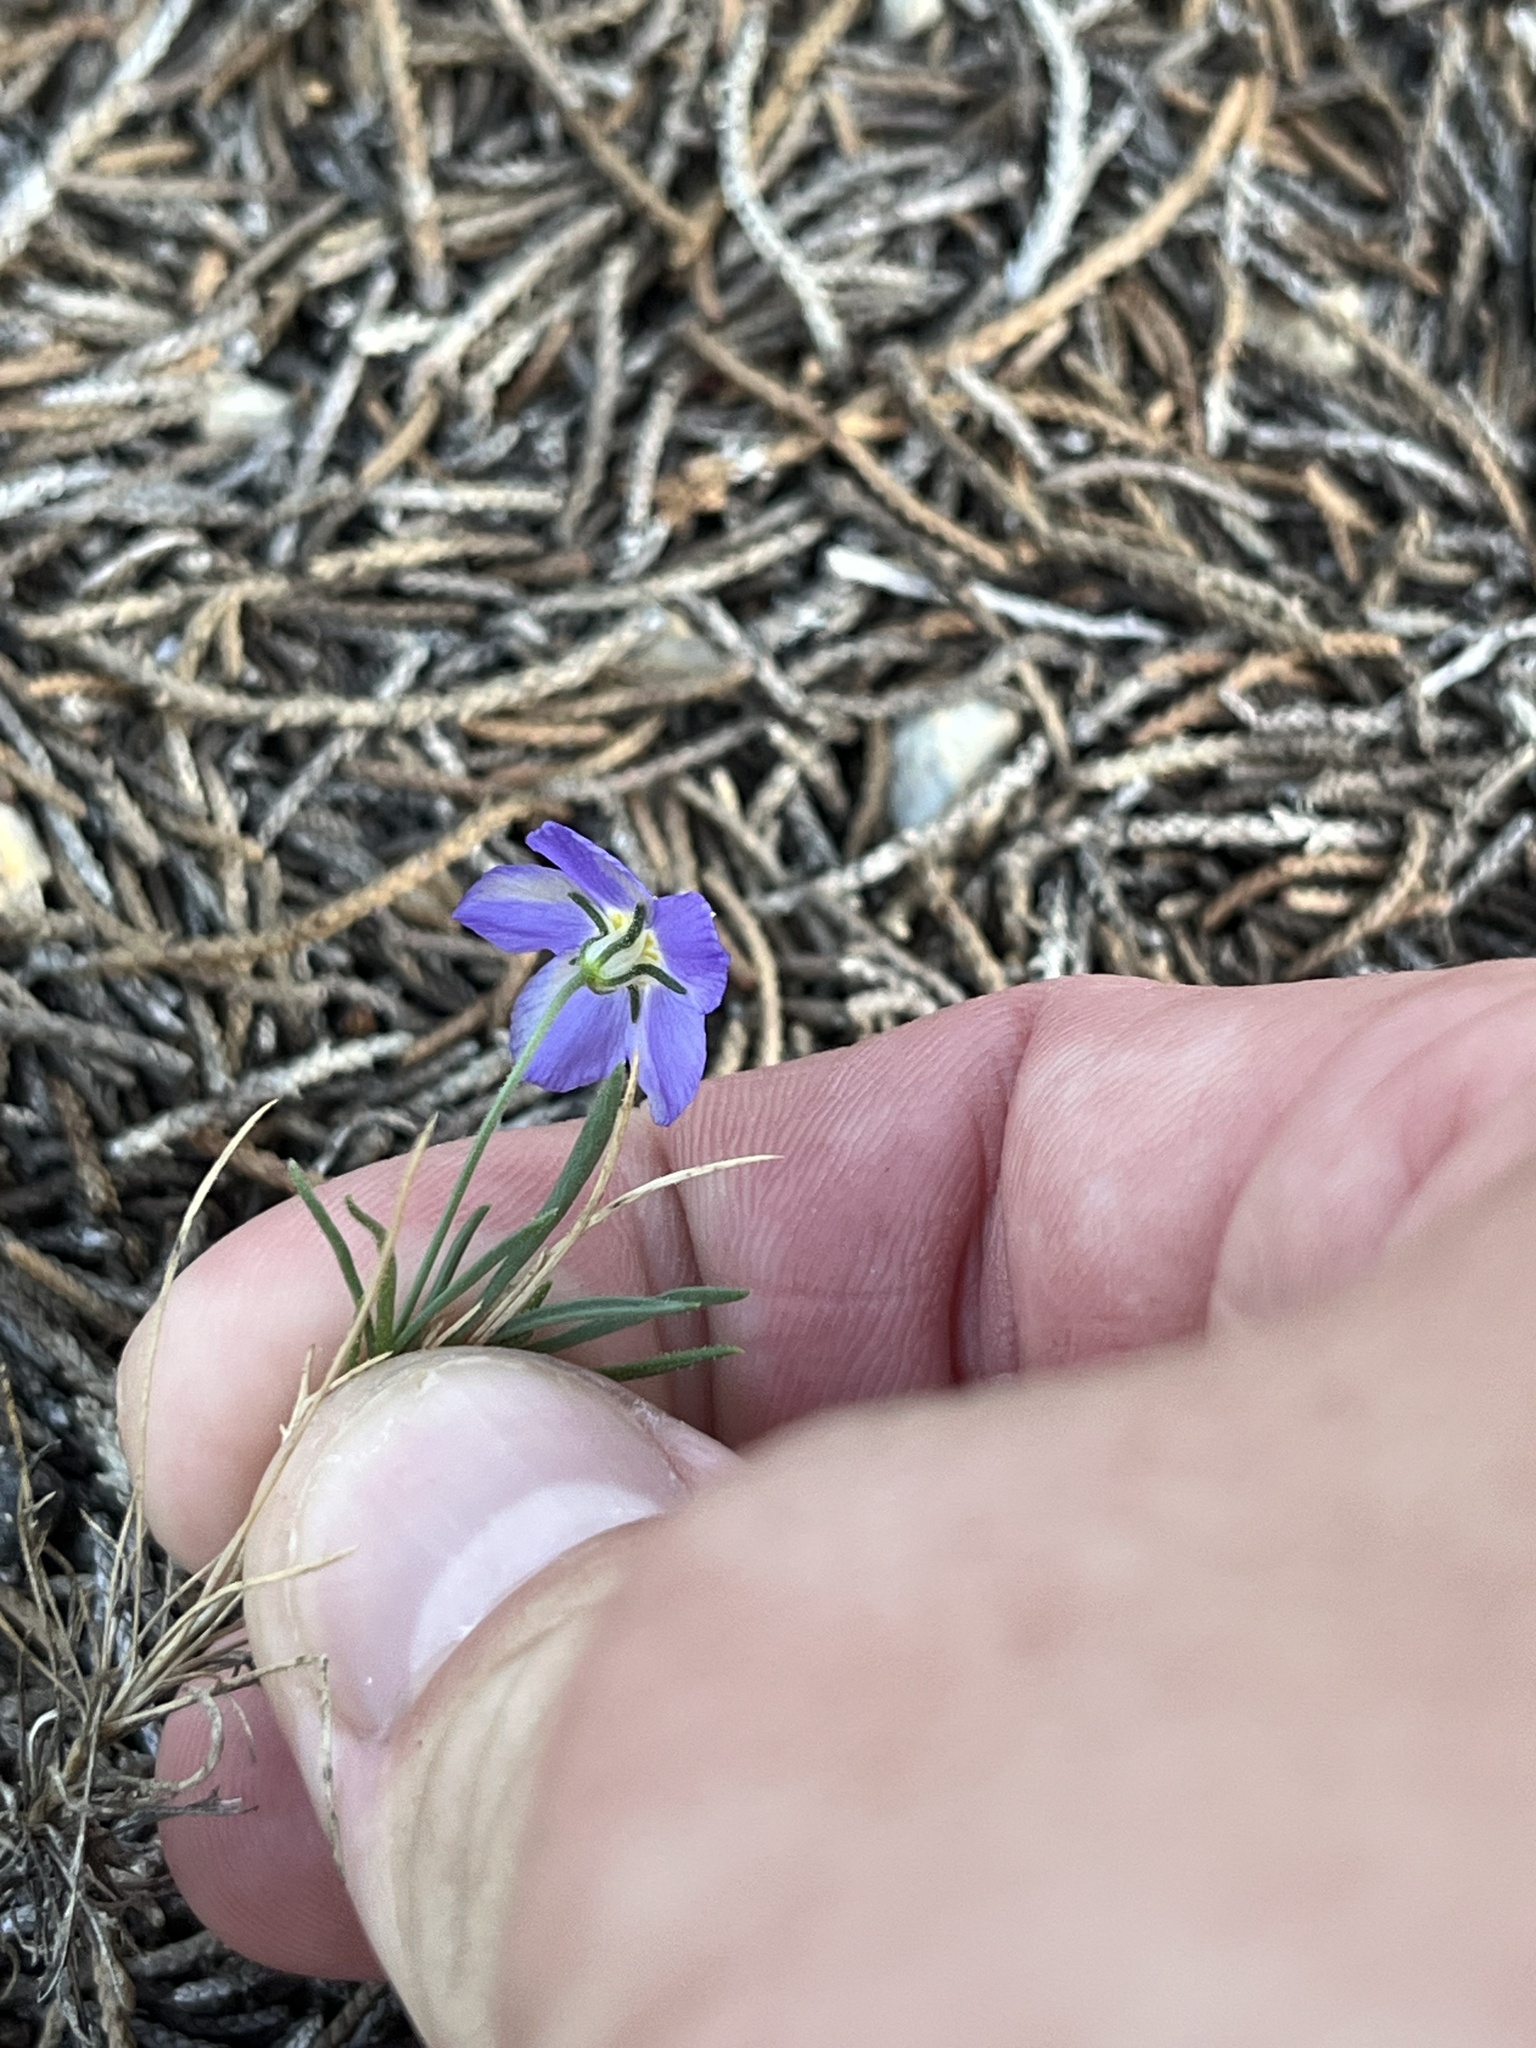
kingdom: Plantae
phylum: Tracheophyta
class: Magnoliopsida
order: Ericales
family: Polemoniaceae
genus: Giliastrum
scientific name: Giliastrum rigidulum
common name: Bluebowls
